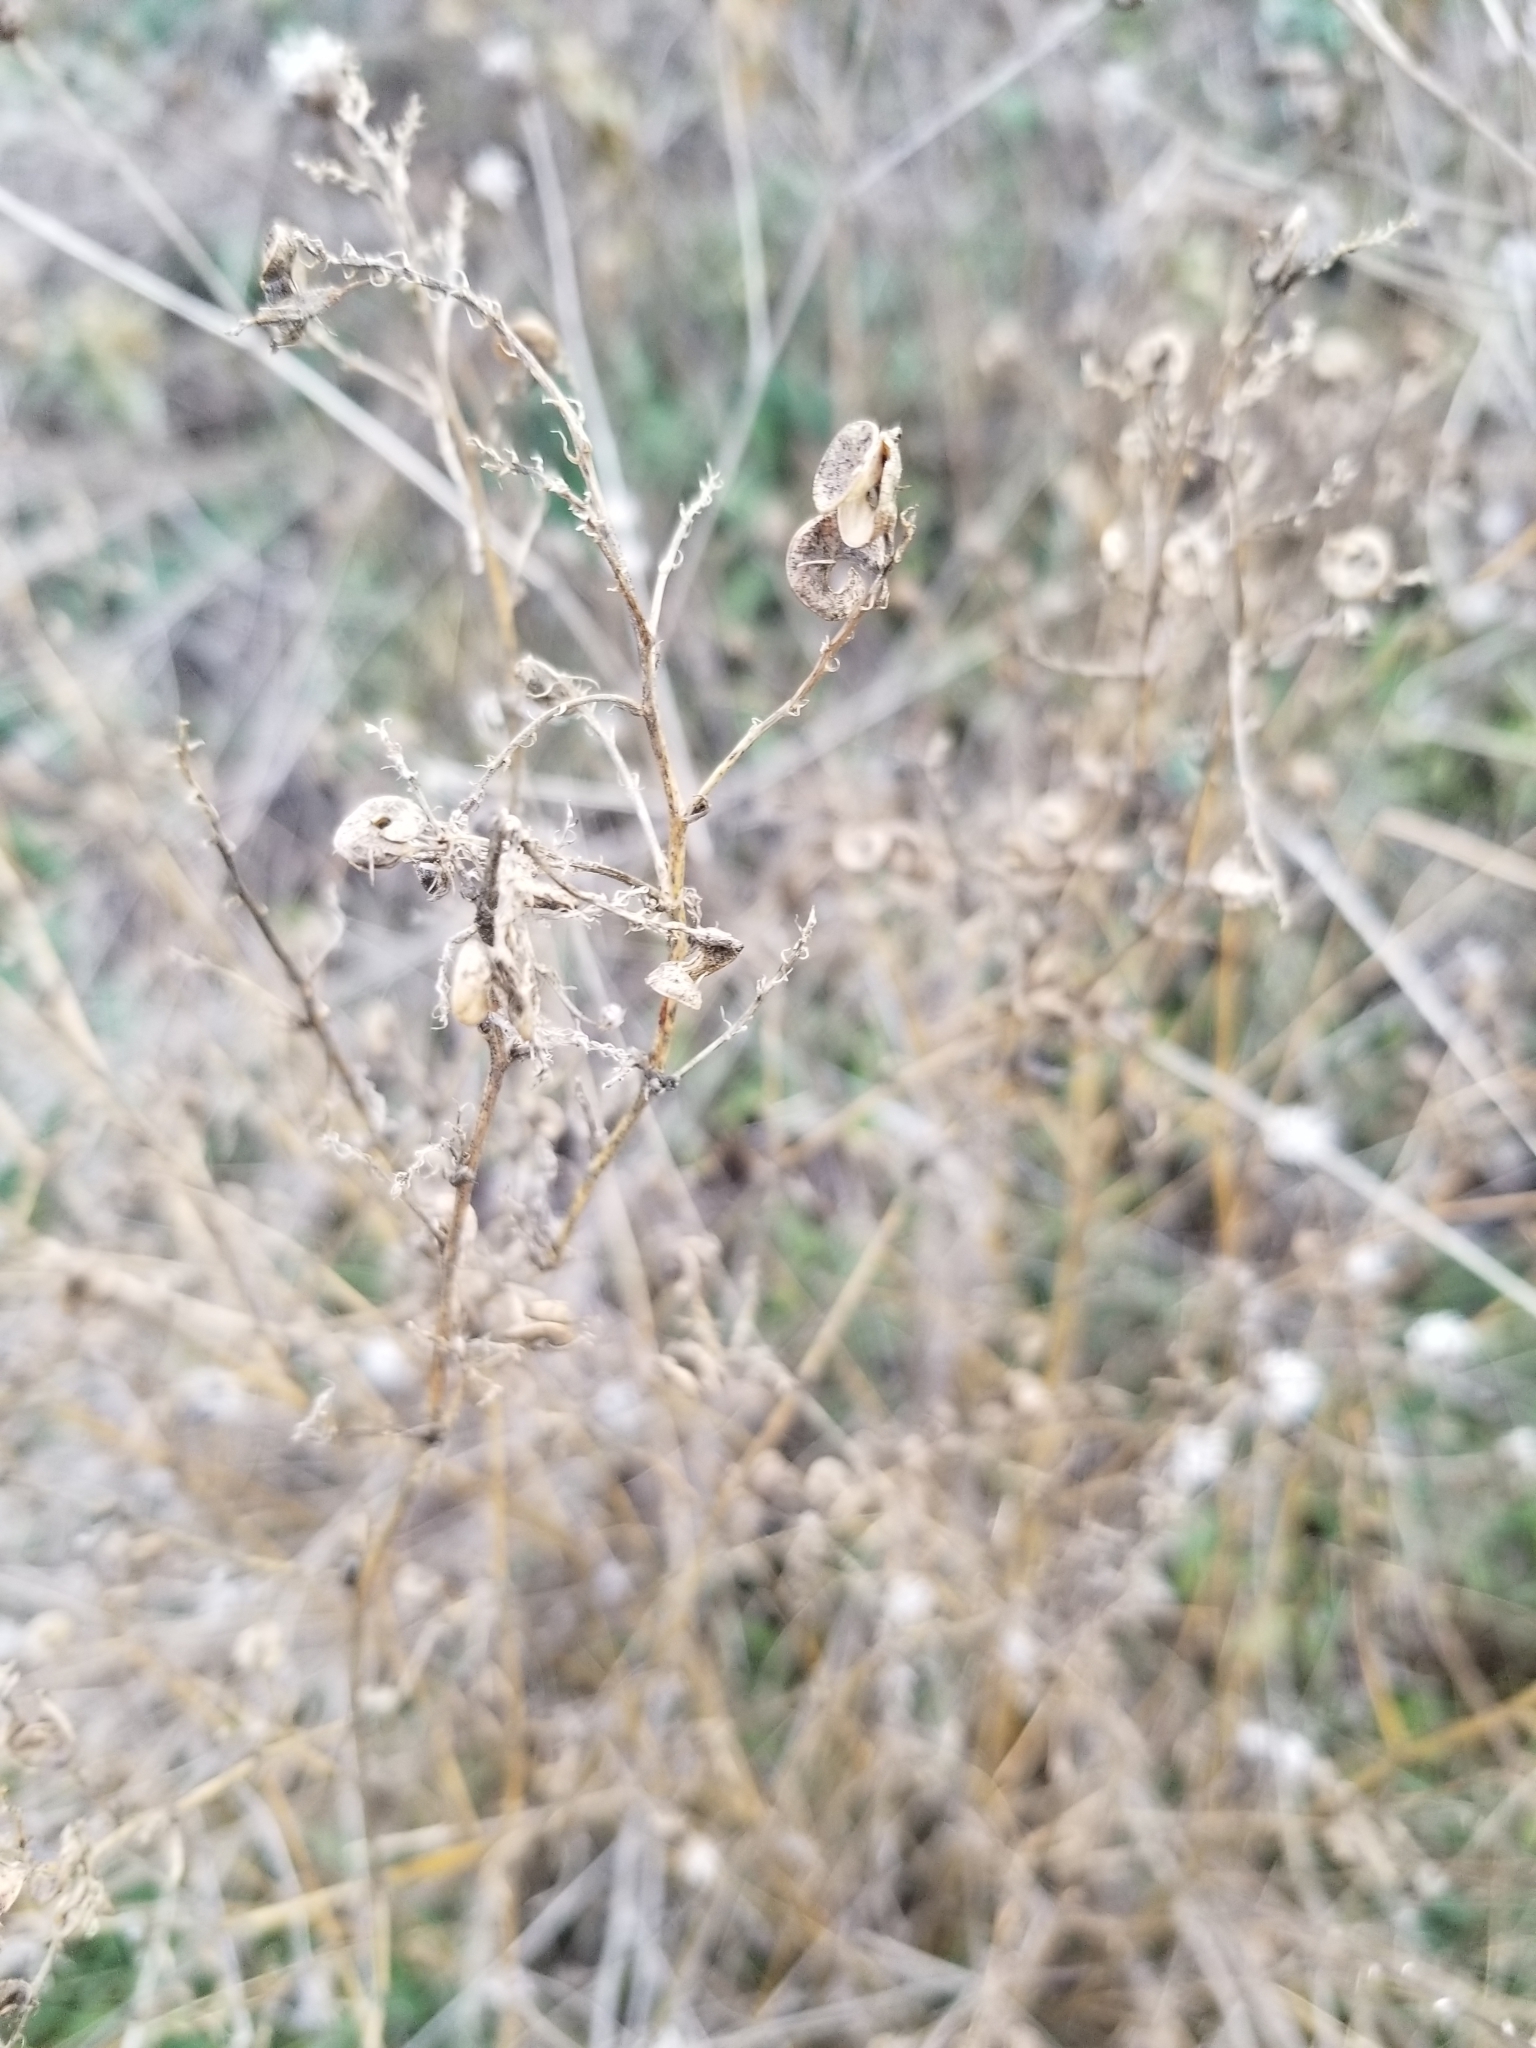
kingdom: Plantae
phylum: Tracheophyta
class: Magnoliopsida
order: Fabales
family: Fabaceae
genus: Medicago
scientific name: Medicago sativa
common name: Alfalfa
